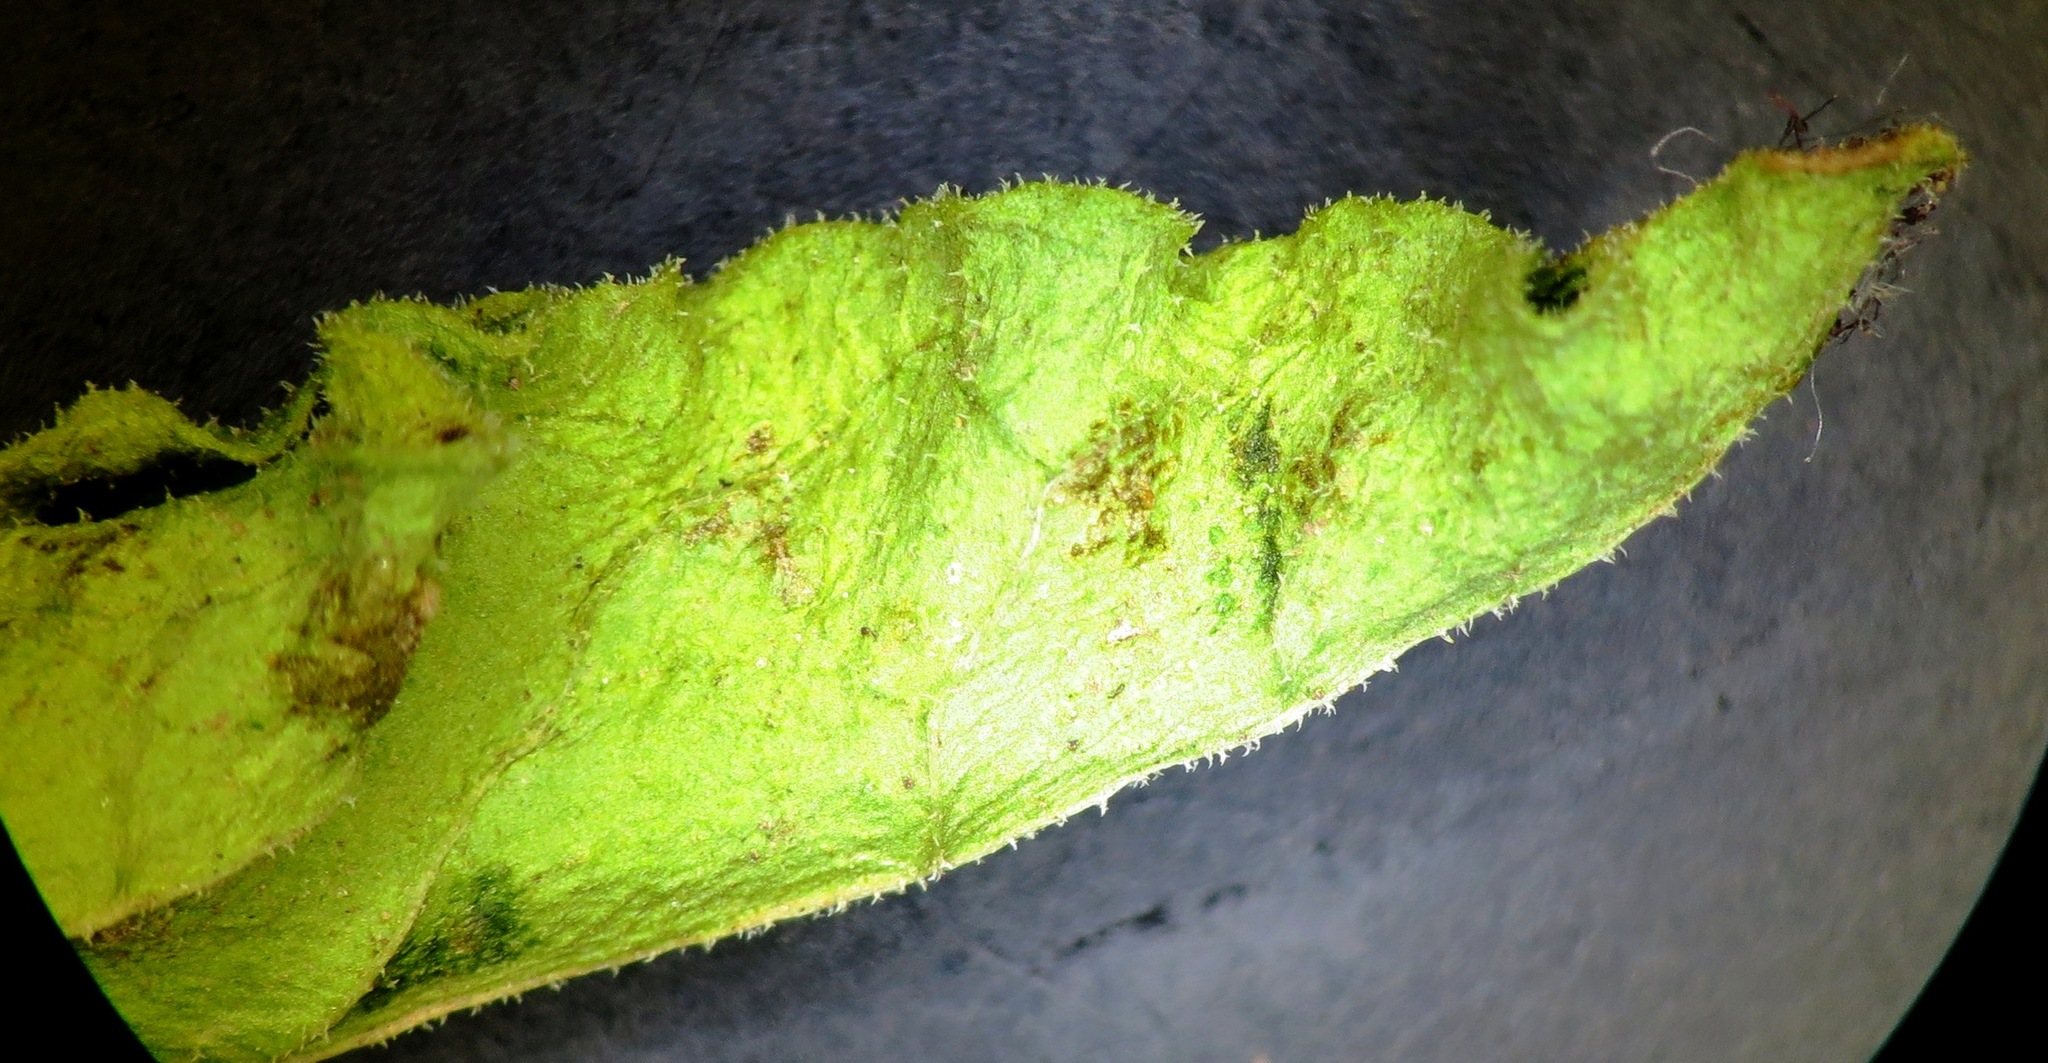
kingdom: Plantae
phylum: Tracheophyta
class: Magnoliopsida
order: Solanales
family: Solanaceae
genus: Physalis
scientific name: Physalis viscosa
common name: Stellate ground-cherry
